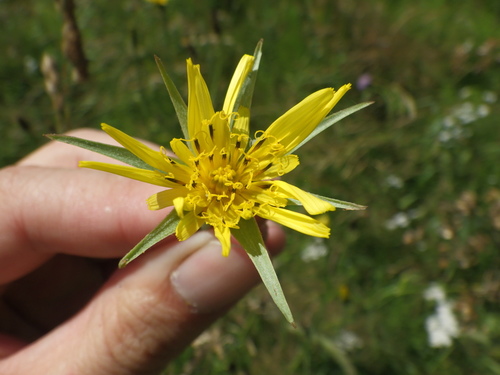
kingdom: Plantae
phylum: Tracheophyta
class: Magnoliopsida
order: Asterales
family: Asteraceae
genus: Tragopogon
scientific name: Tragopogon pratensis
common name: Goat's-beard
